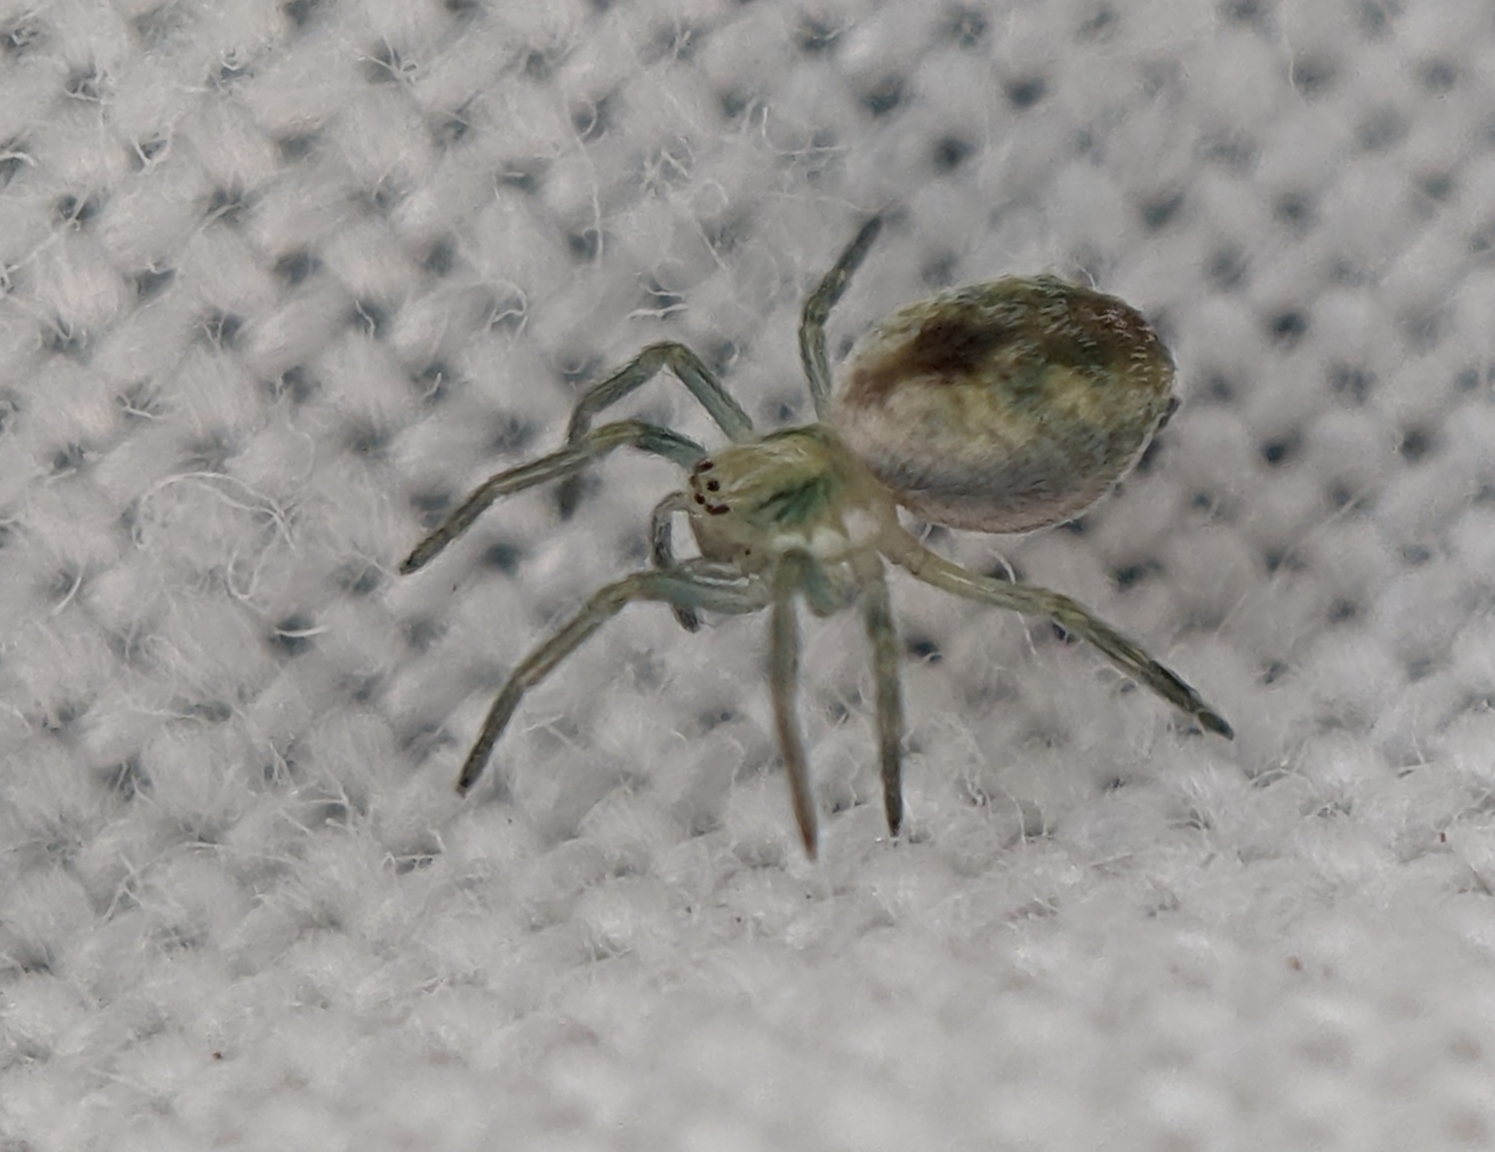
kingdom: Animalia
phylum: Arthropoda
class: Arachnida
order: Araneae
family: Dictynidae
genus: Nigma
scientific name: Nigma puella
